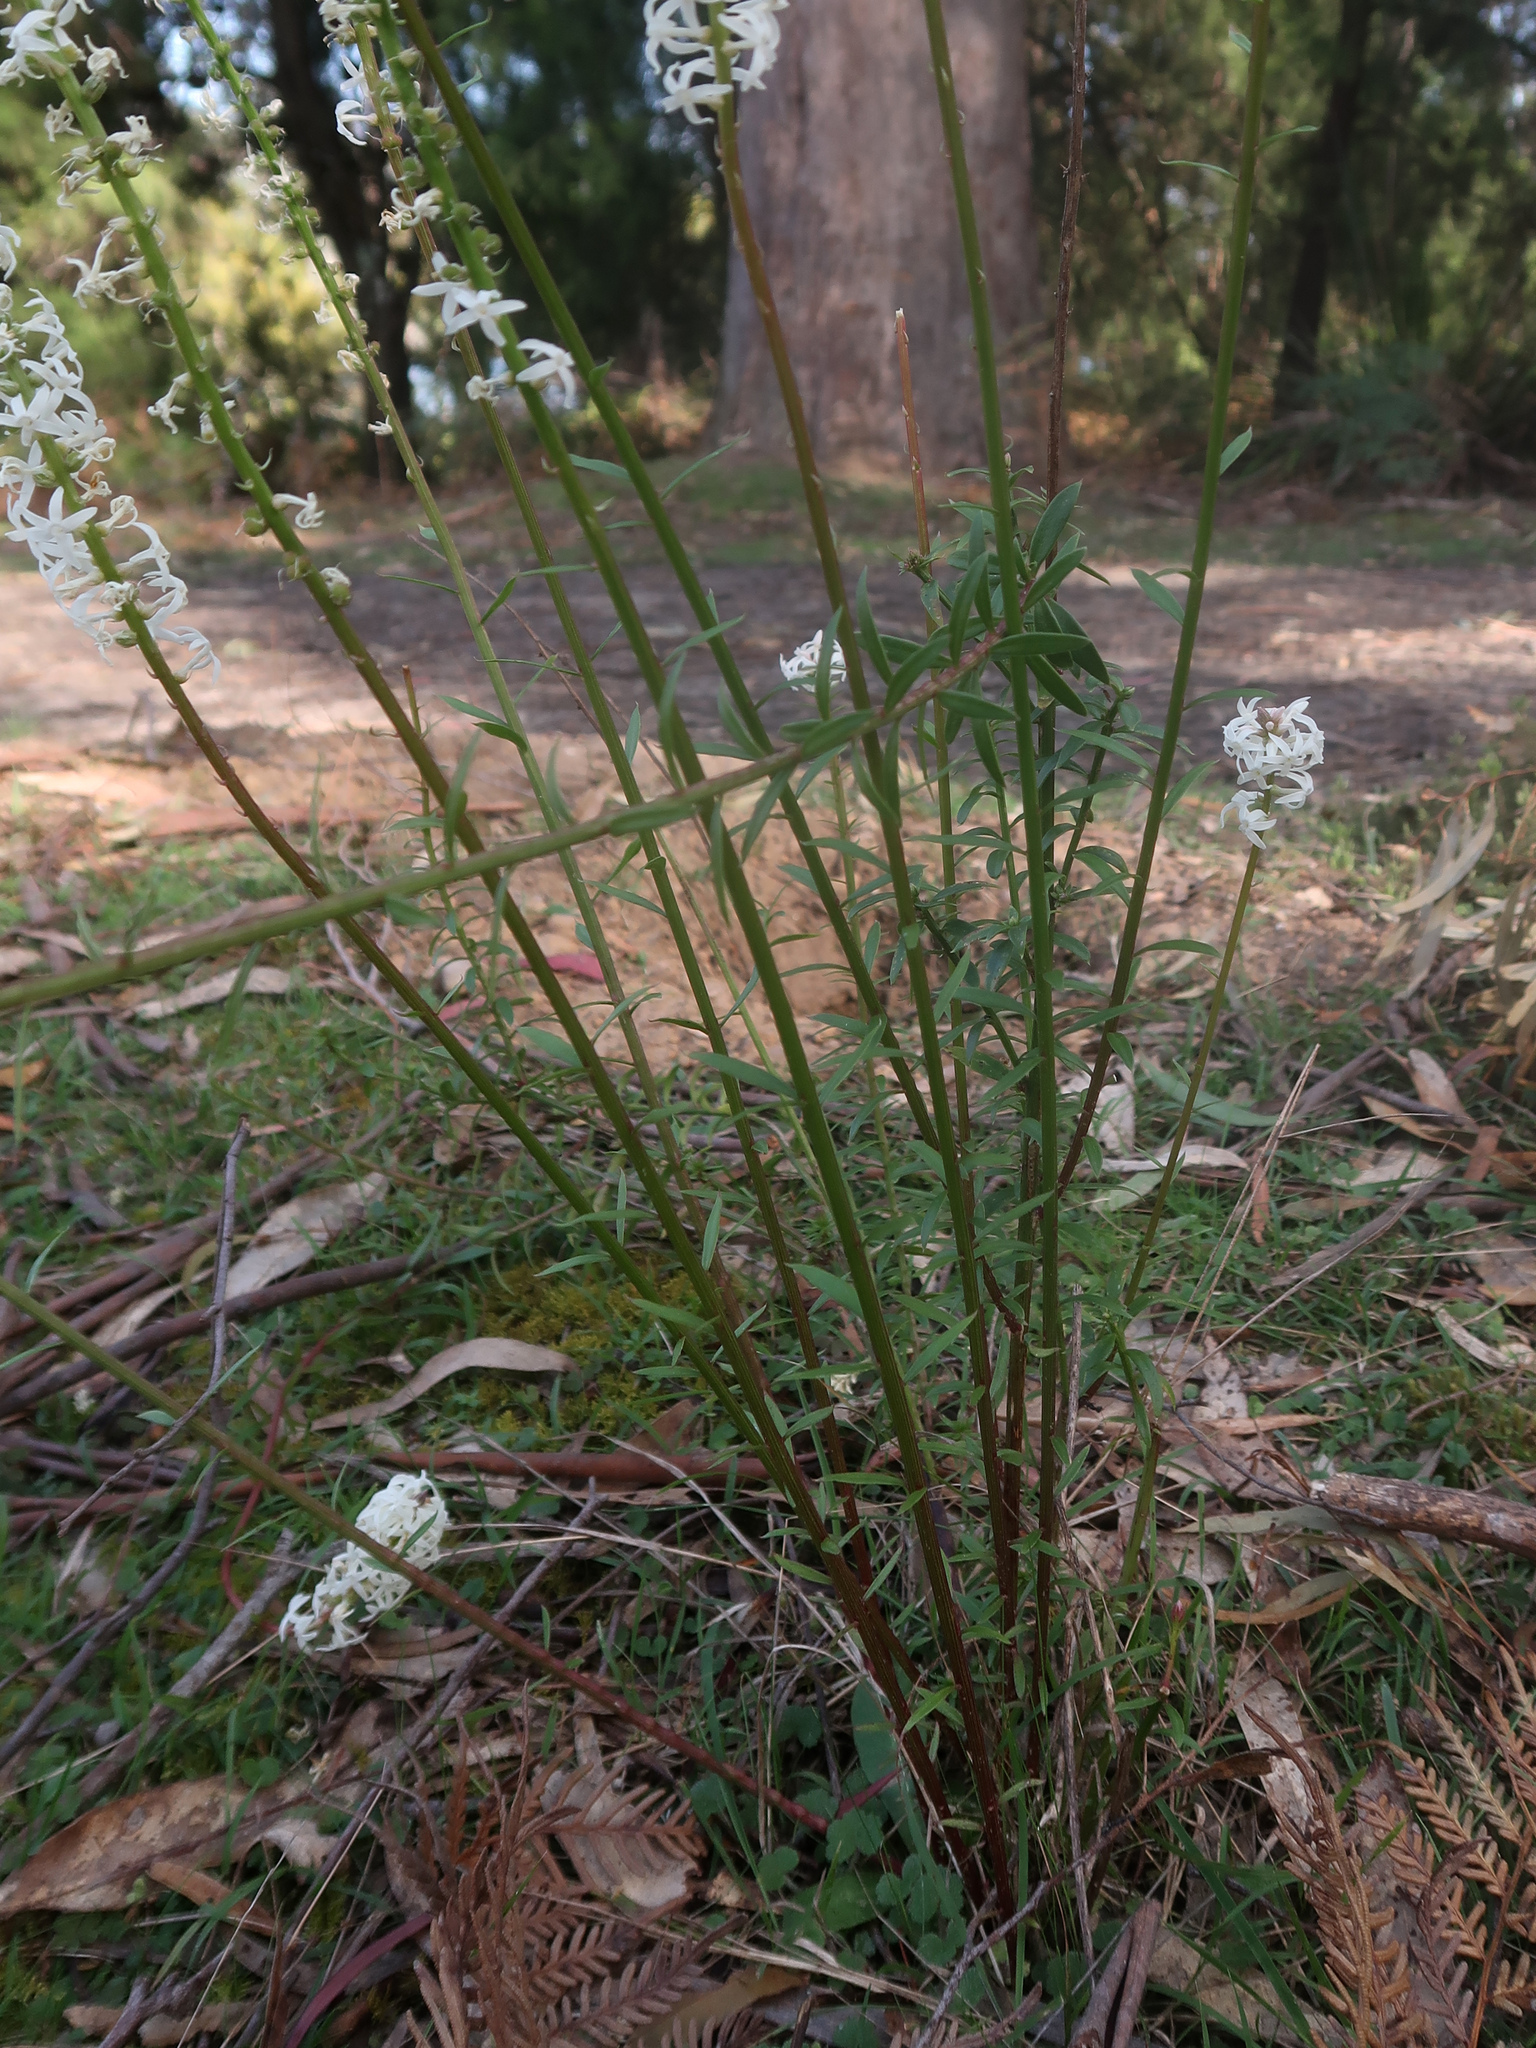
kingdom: Plantae
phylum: Tracheophyta
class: Magnoliopsida
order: Celastrales
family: Celastraceae
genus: Stackhousia
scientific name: Stackhousia monogyna
